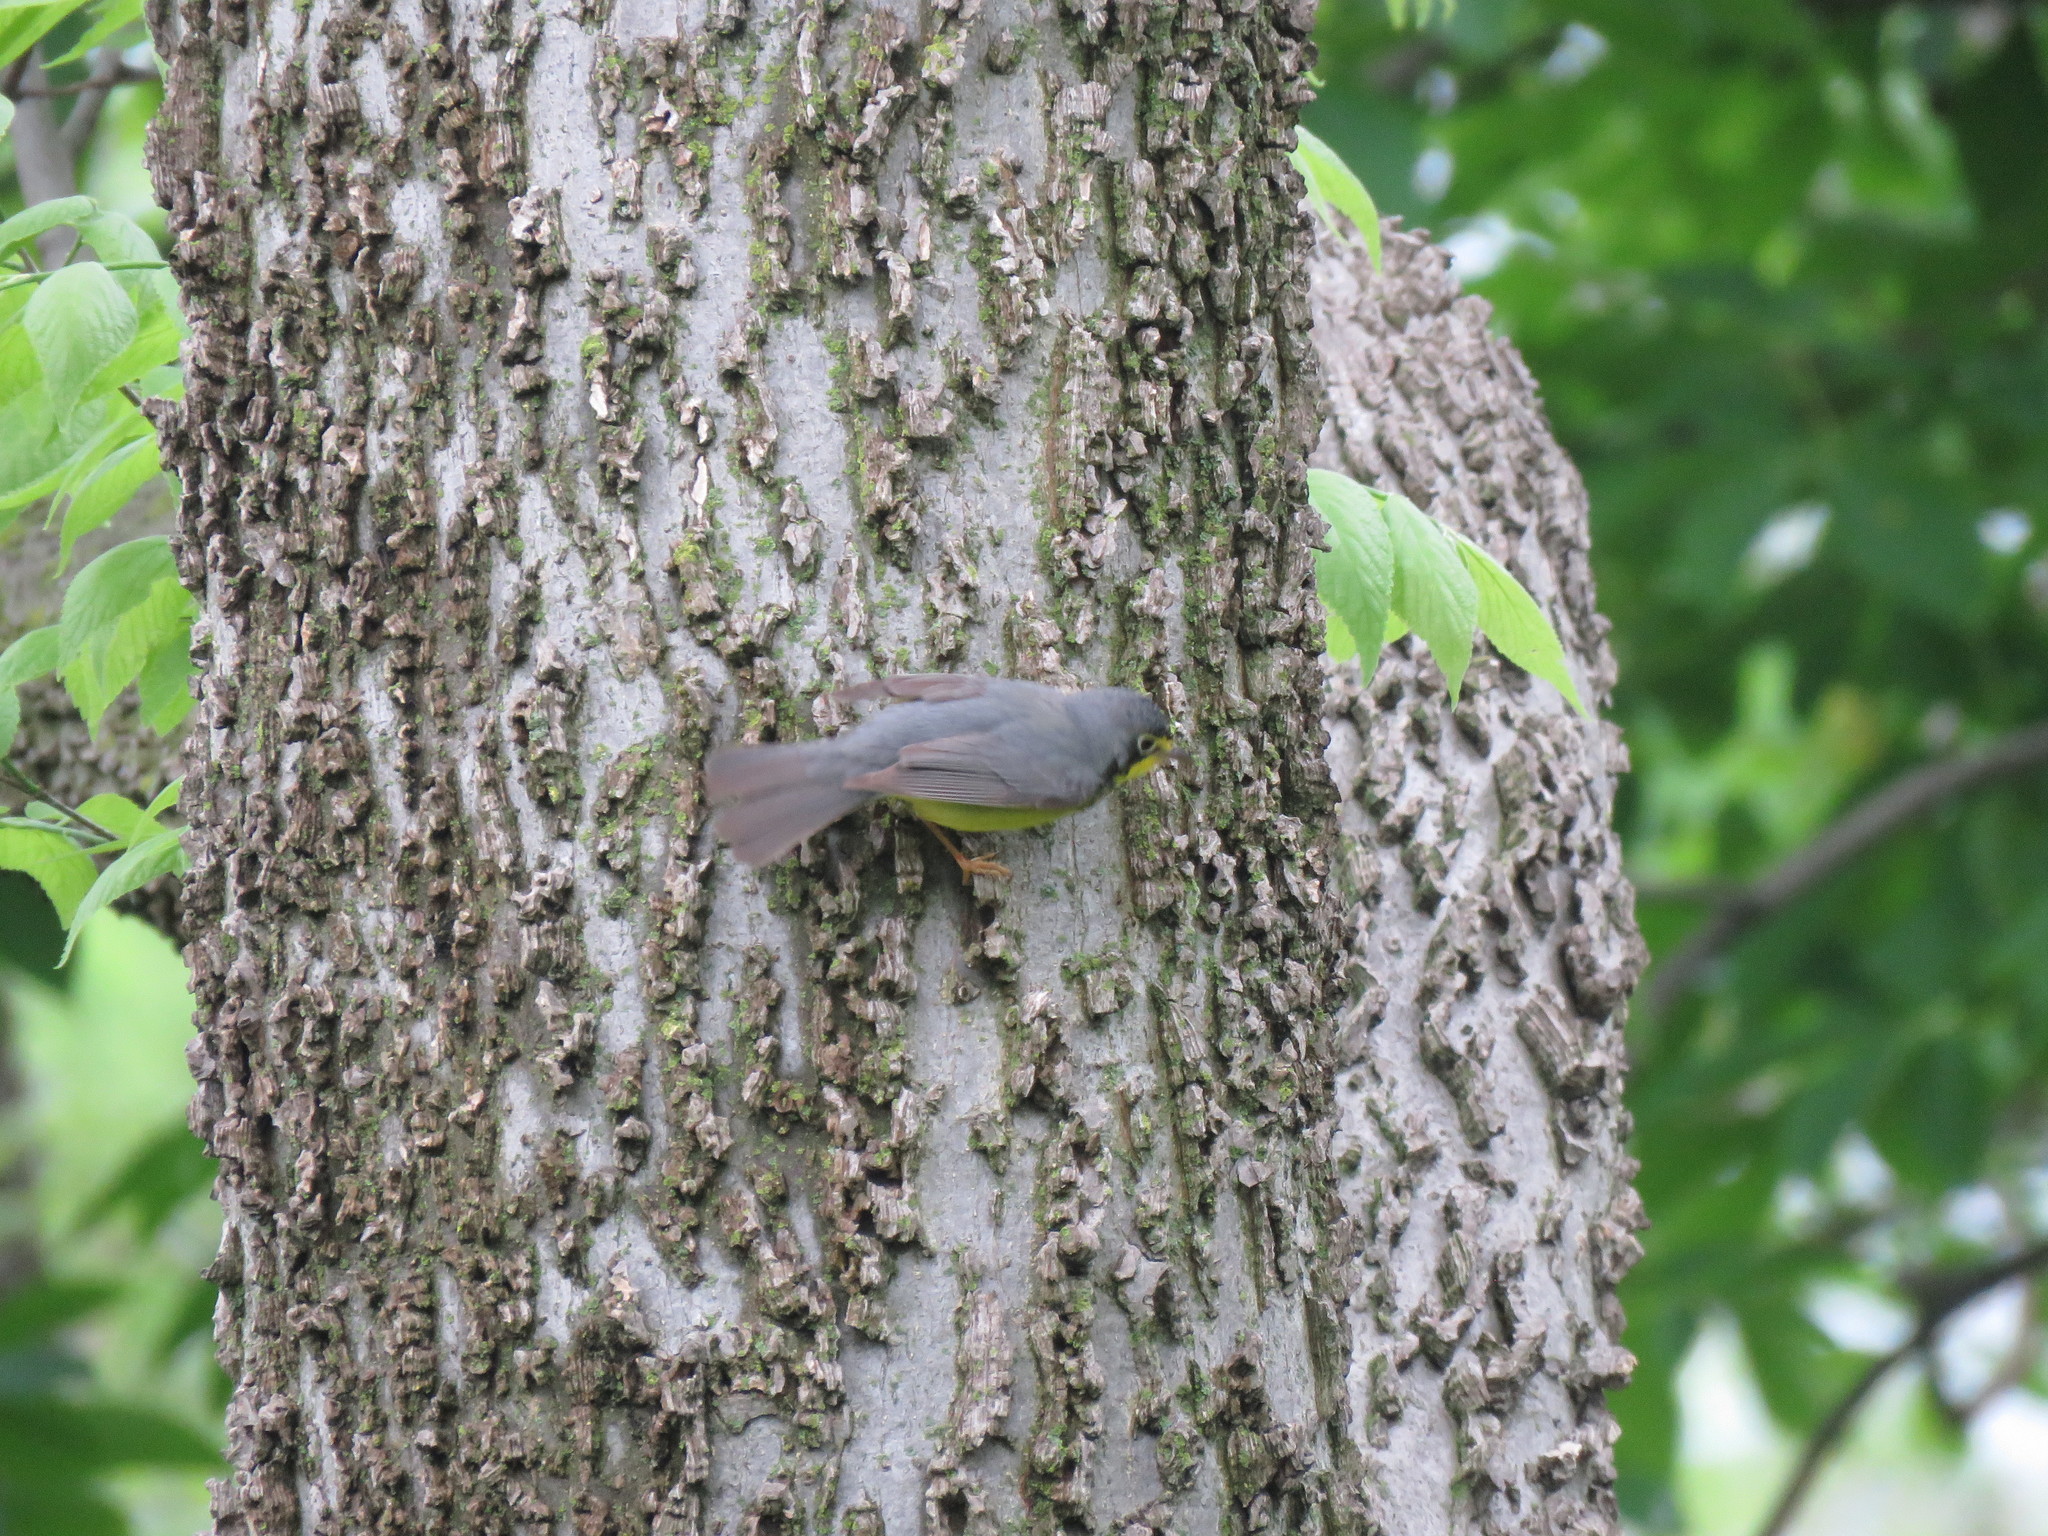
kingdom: Animalia
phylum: Chordata
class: Aves
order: Passeriformes
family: Parulidae
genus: Cardellina
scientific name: Cardellina canadensis
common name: Canada warbler
